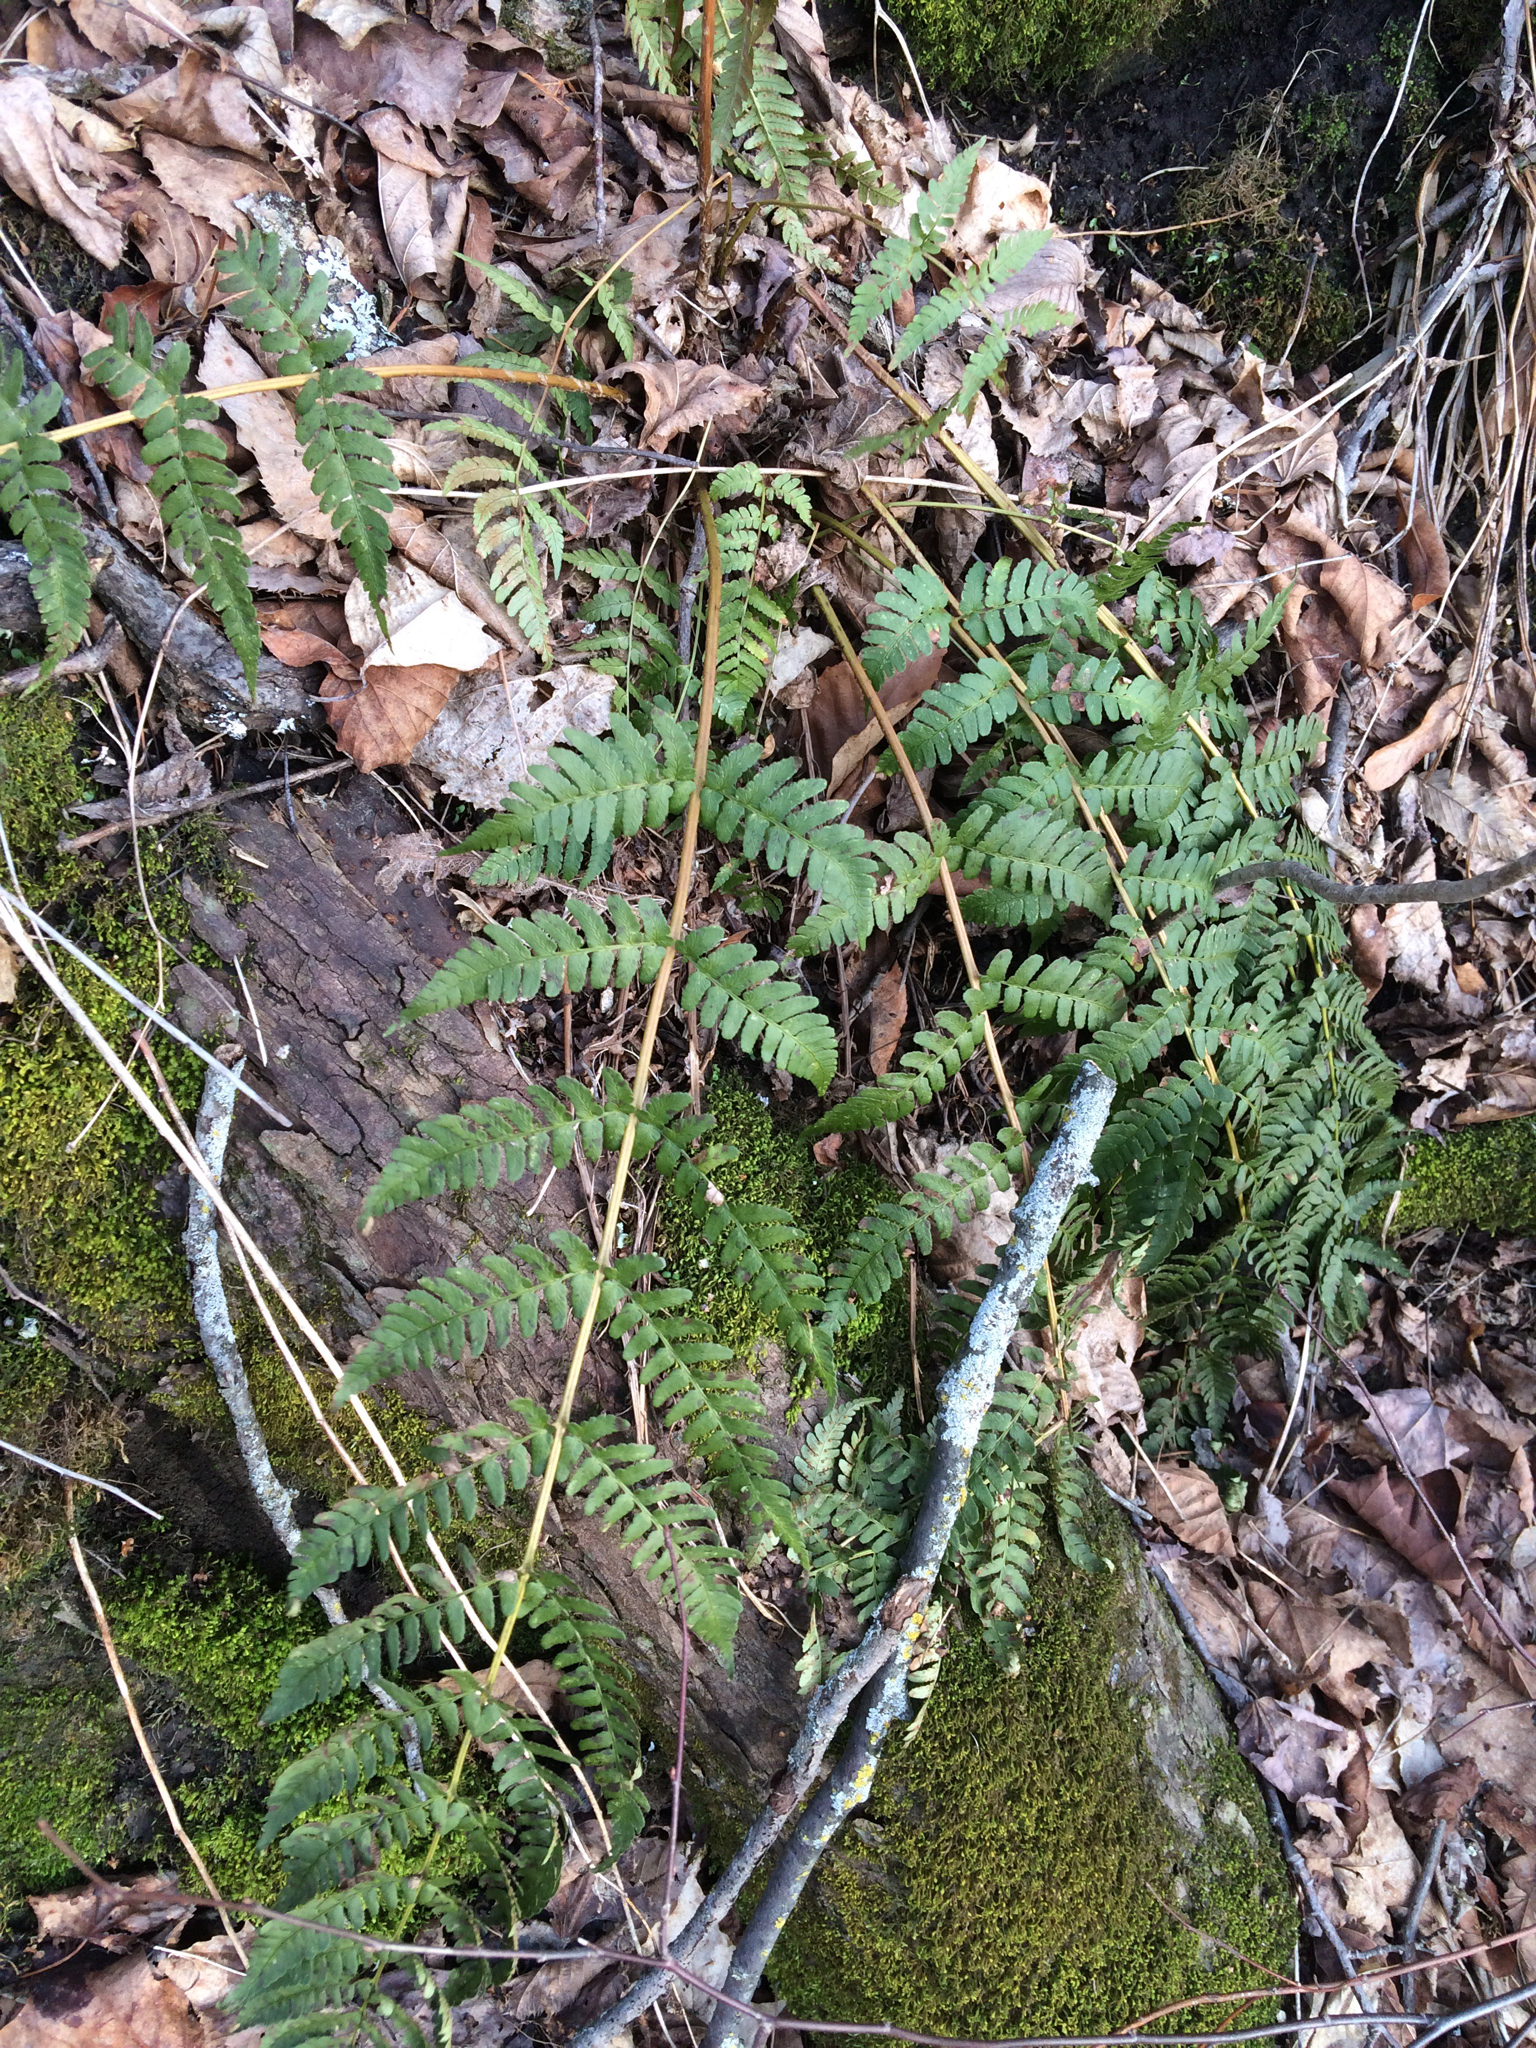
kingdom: Plantae
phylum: Tracheophyta
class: Polypodiopsida
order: Polypodiales
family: Dryopteridaceae
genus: Dryopteris
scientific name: Dryopteris marginalis
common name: Marginal wood fern
